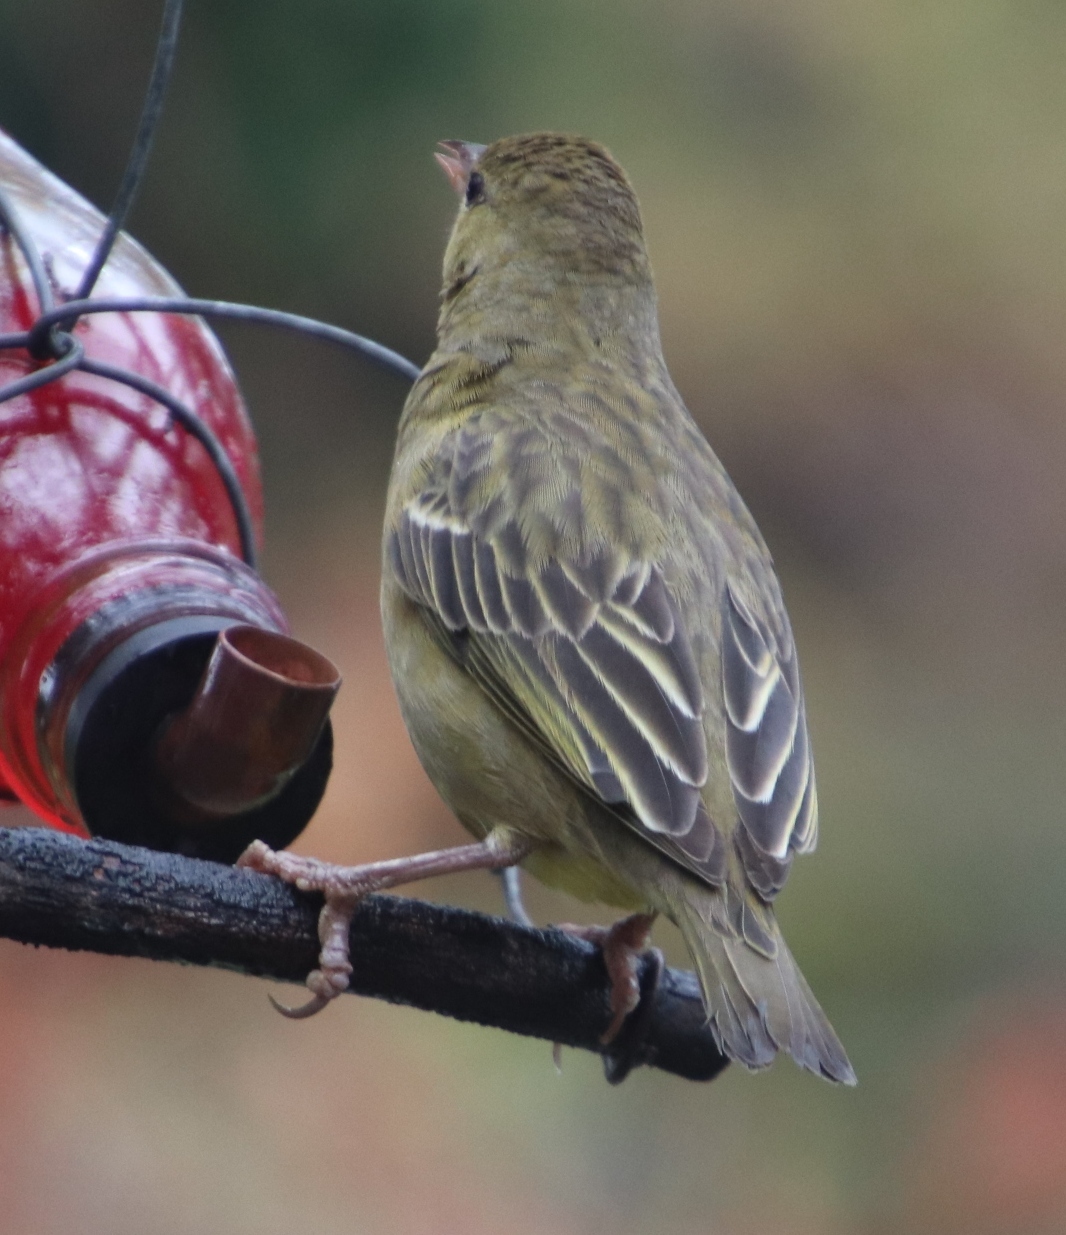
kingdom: Animalia
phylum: Chordata
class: Aves
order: Passeriformes
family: Ploceidae
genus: Ploceus
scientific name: Ploceus capensis
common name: Cape weaver
